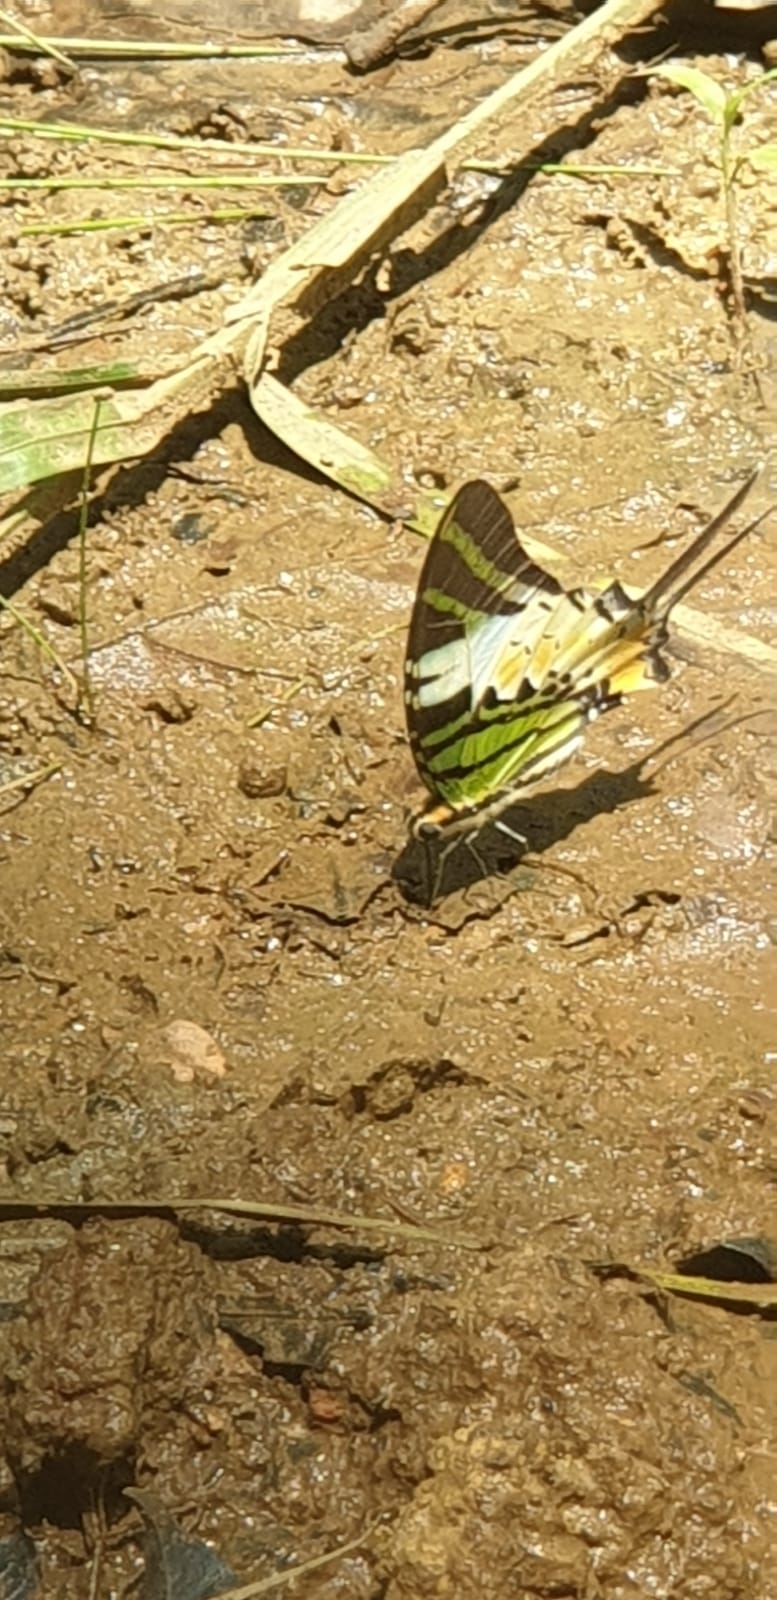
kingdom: Animalia
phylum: Arthropoda
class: Insecta
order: Lepidoptera
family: Papilionidae
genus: Graphium
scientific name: Graphium antiphates
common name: Fivebar swordtail
